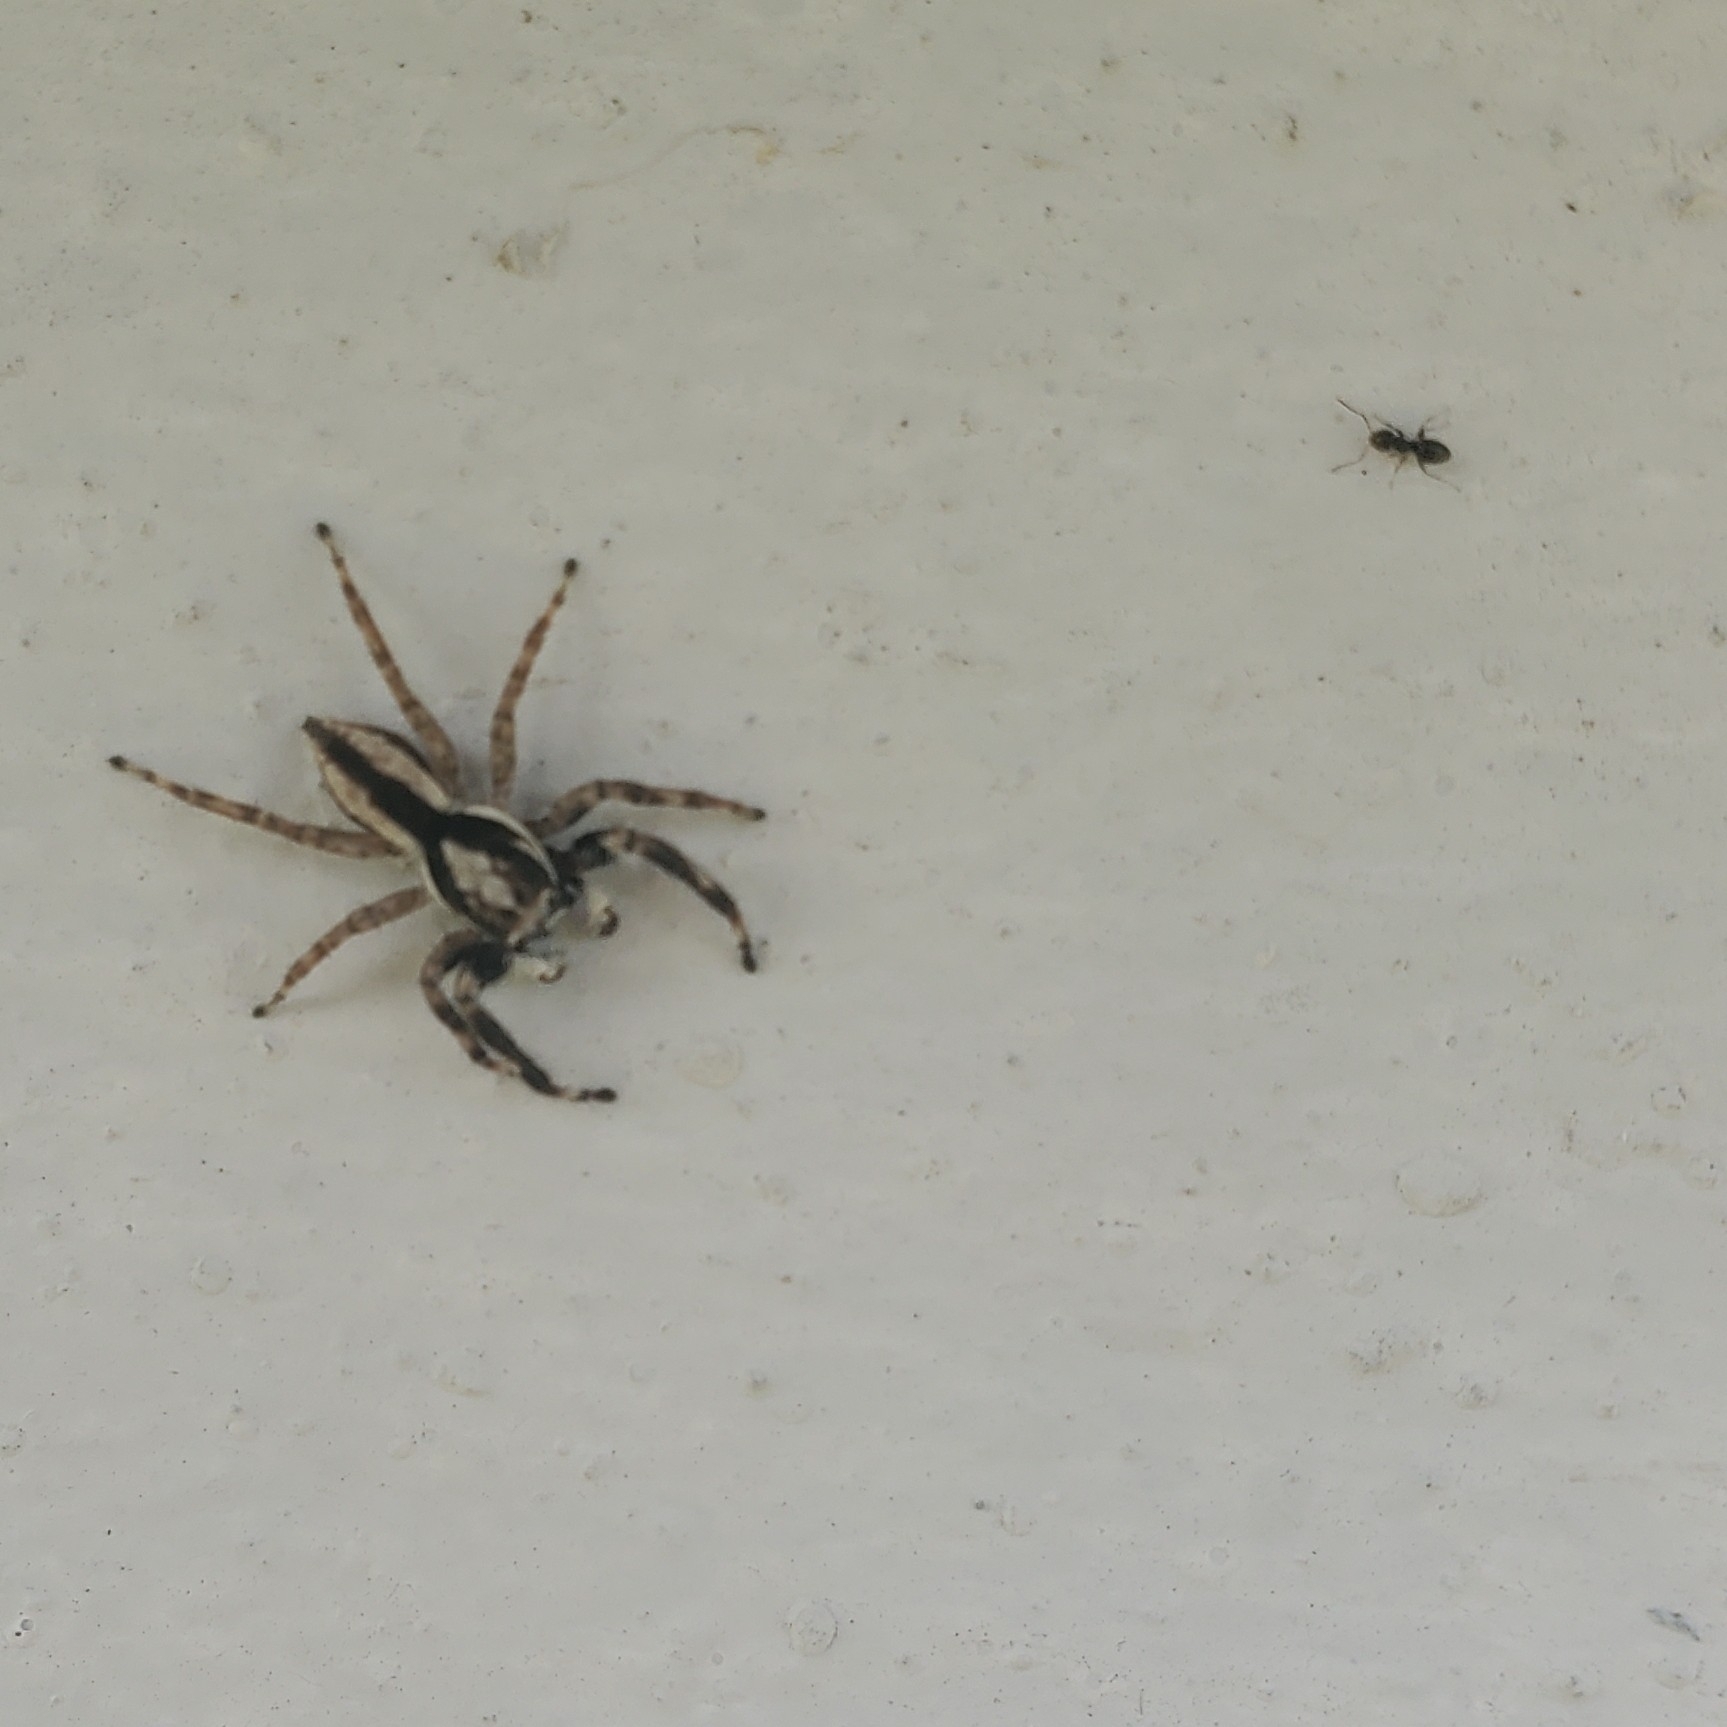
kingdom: Animalia
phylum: Arthropoda
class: Arachnida
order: Araneae
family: Salticidae
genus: Menemerus
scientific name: Menemerus bivittatus
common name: Gray wall jumper
